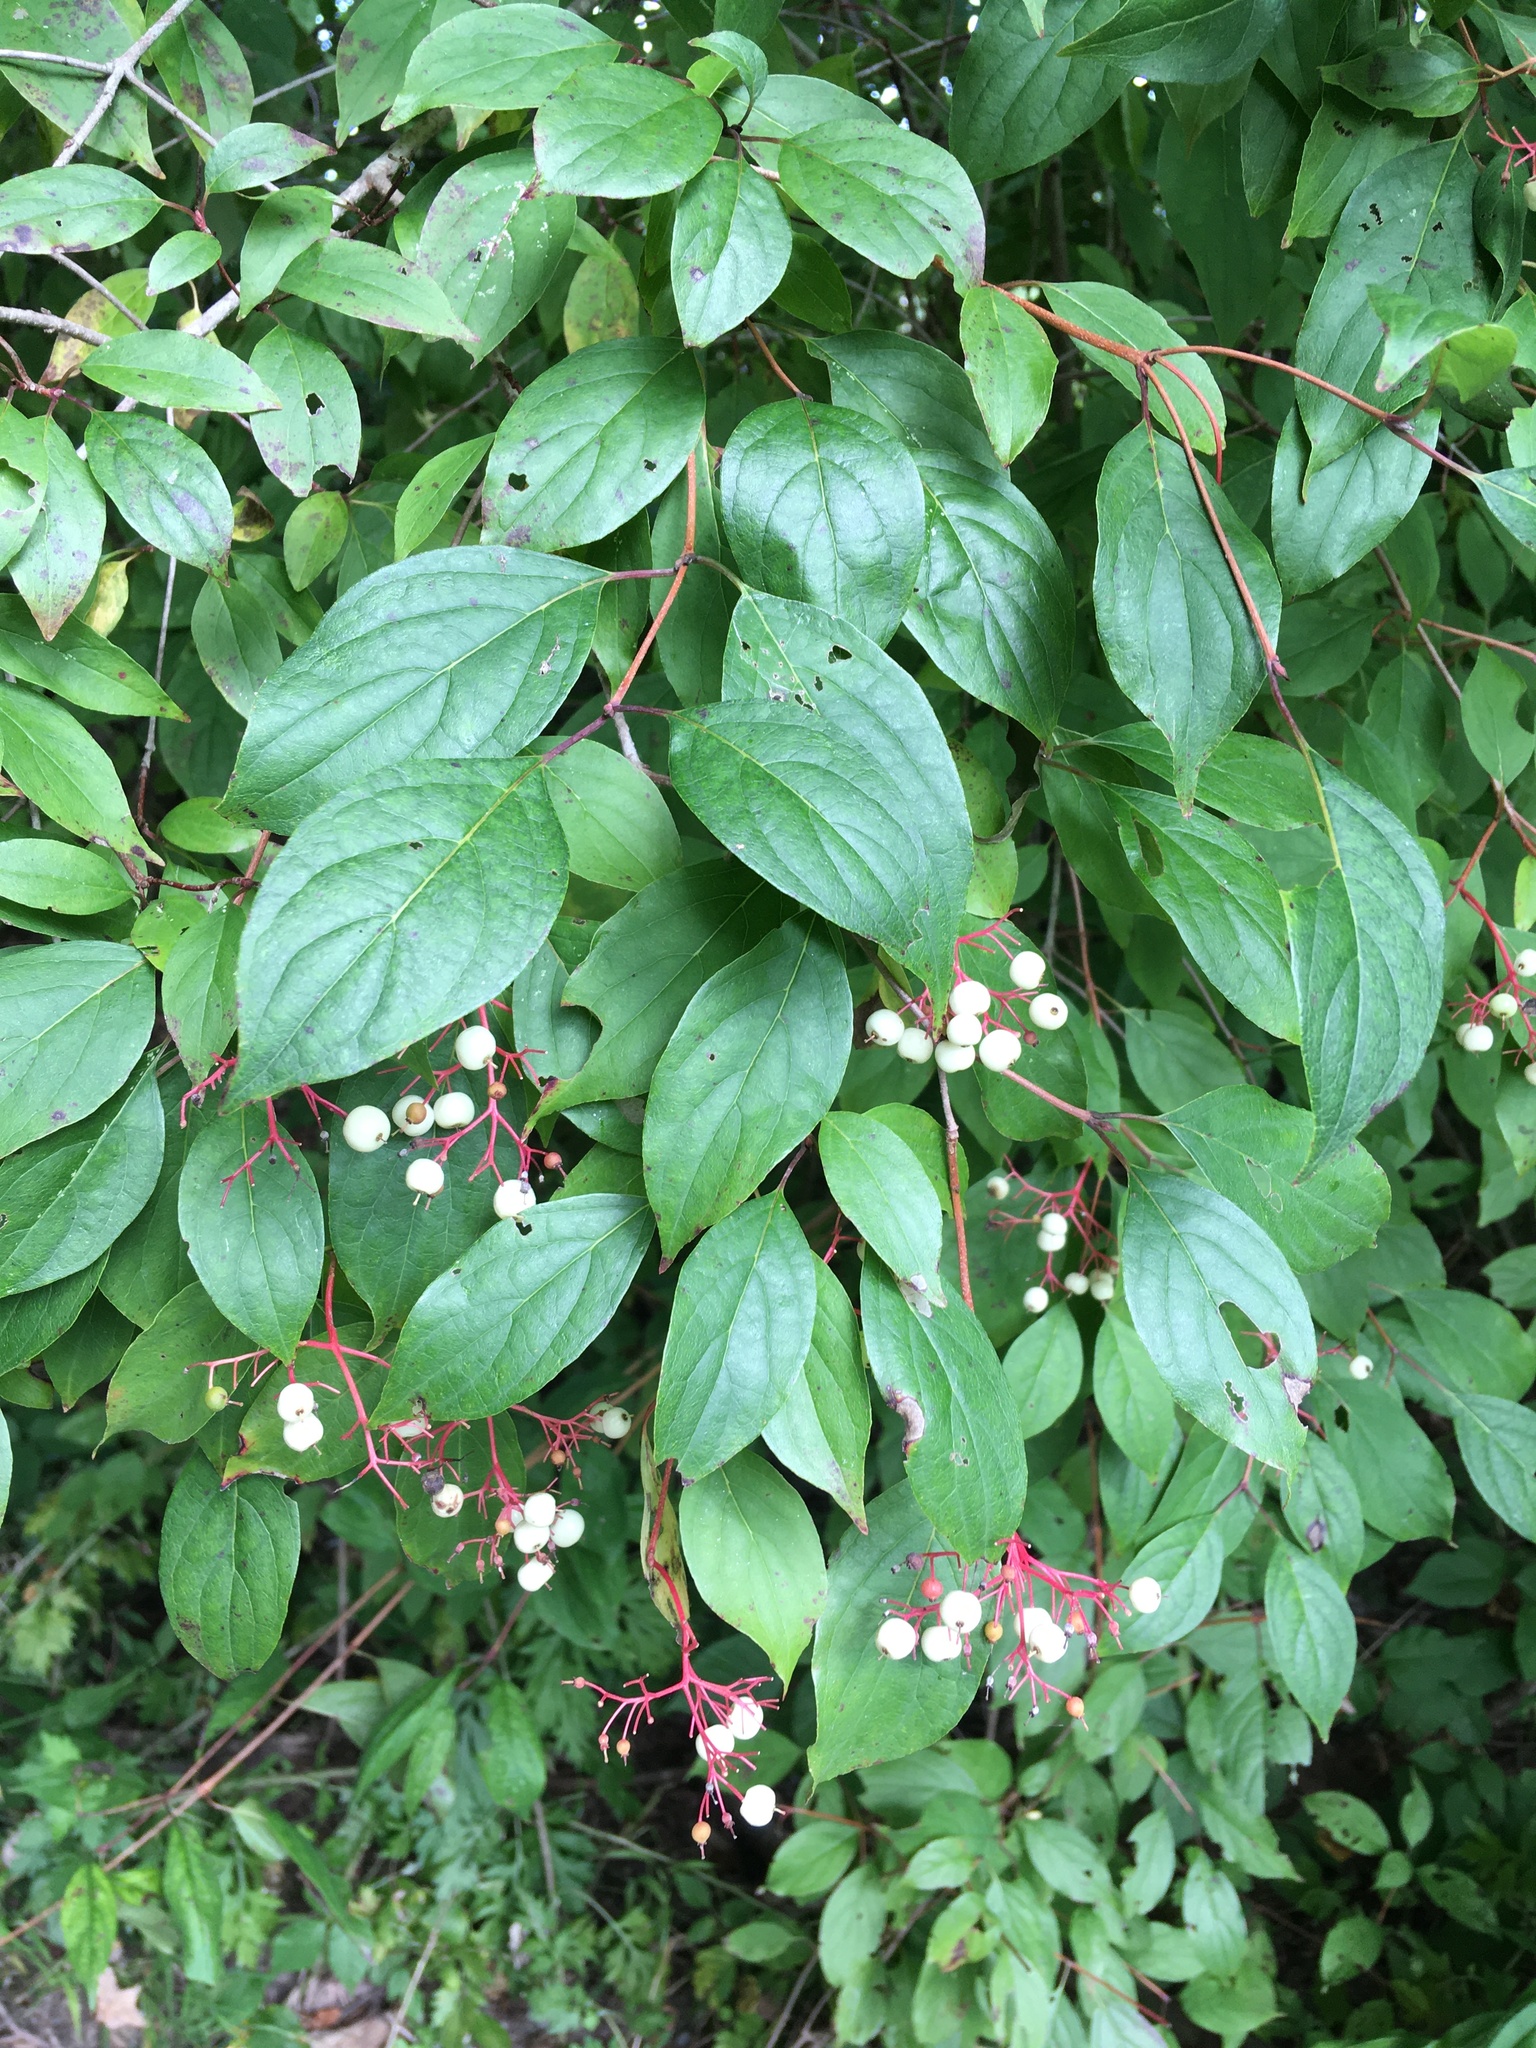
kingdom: Plantae
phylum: Tracheophyta
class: Magnoliopsida
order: Cornales
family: Cornaceae
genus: Cornus
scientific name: Cornus racemosa
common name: Panicled dogwood
